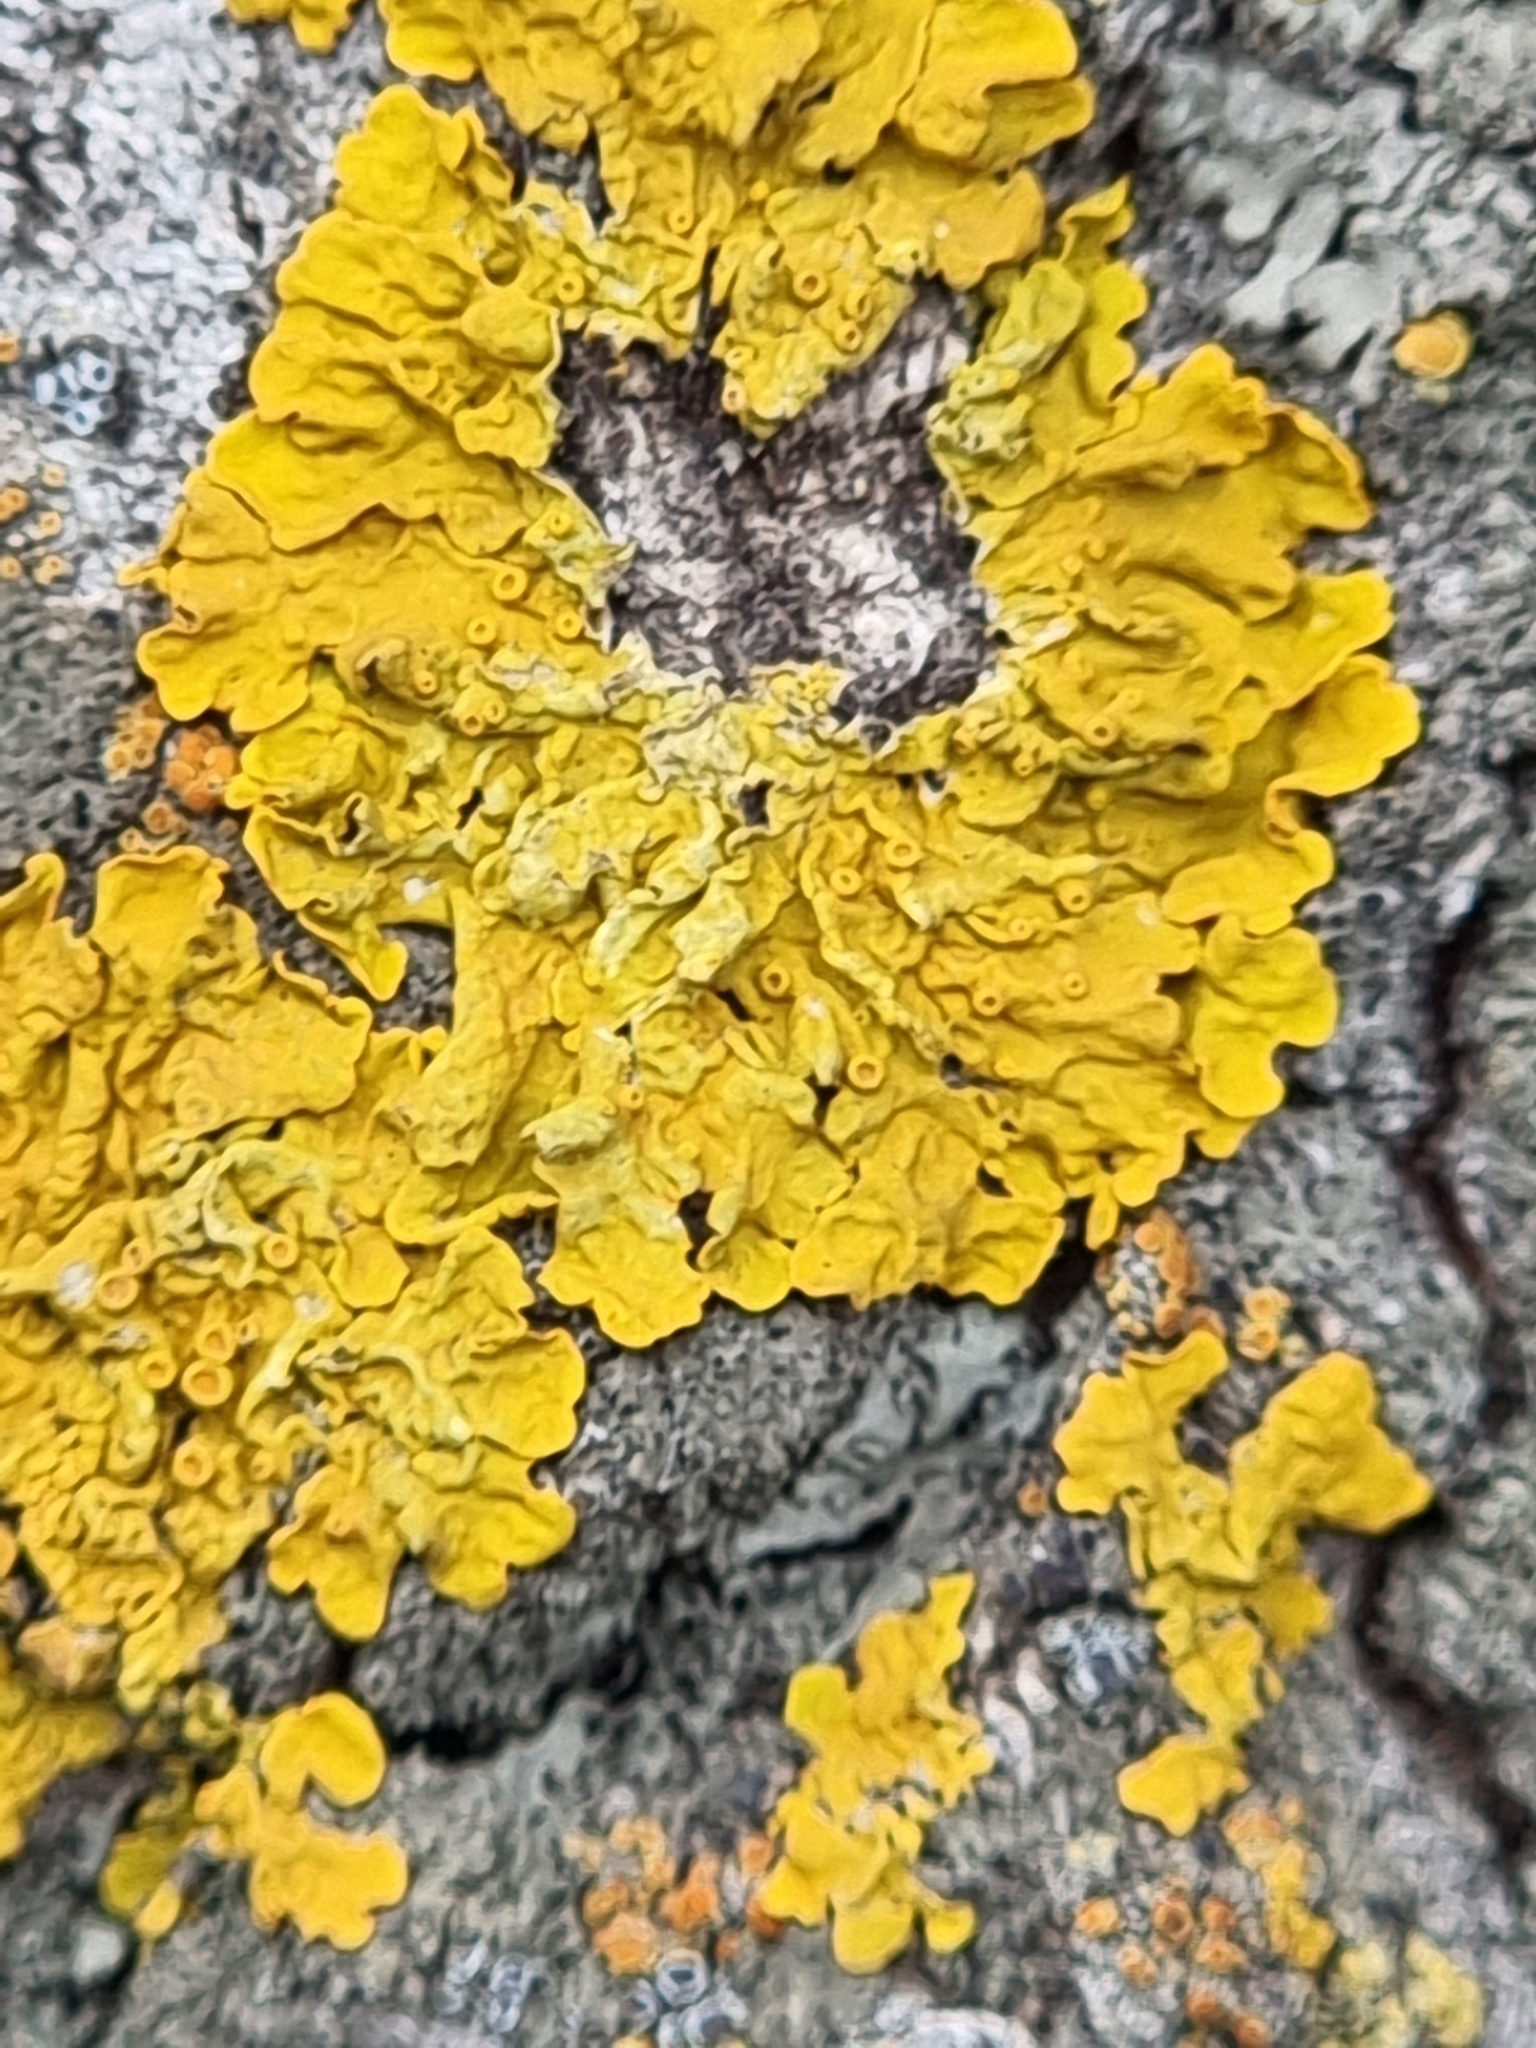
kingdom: Fungi
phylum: Ascomycota
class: Lecanoromycetes
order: Teloschistales
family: Teloschistaceae
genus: Xanthoria
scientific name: Xanthoria parietina
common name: Common orange lichen
